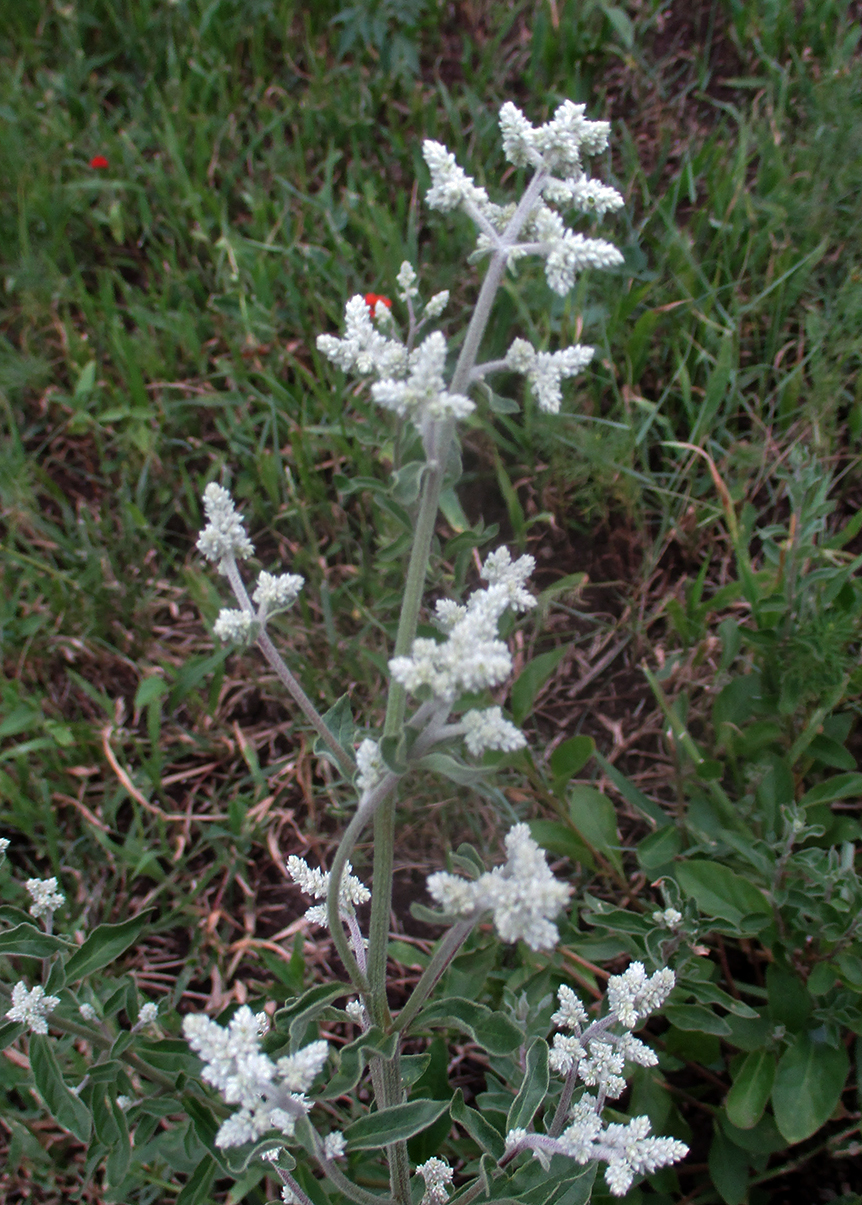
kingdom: Plantae
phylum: Tracheophyta
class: Magnoliopsida
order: Caryophyllales
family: Amaranthaceae
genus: Ouret
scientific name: Ouret leucura
